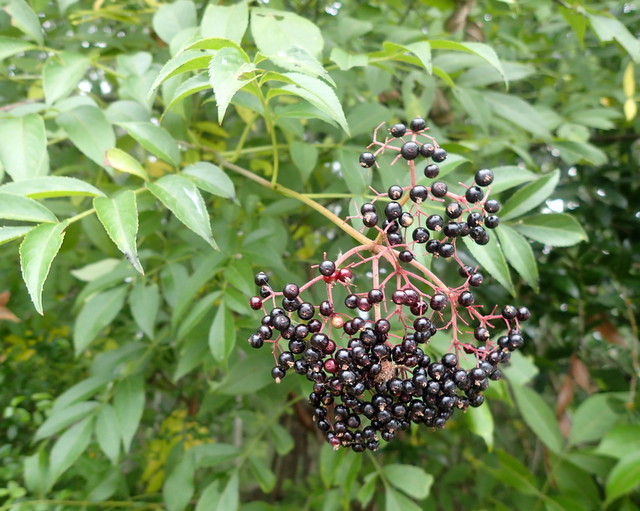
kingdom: Plantae
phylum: Tracheophyta
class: Magnoliopsida
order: Dipsacales
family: Viburnaceae
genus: Sambucus
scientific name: Sambucus canadensis
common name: American elder
